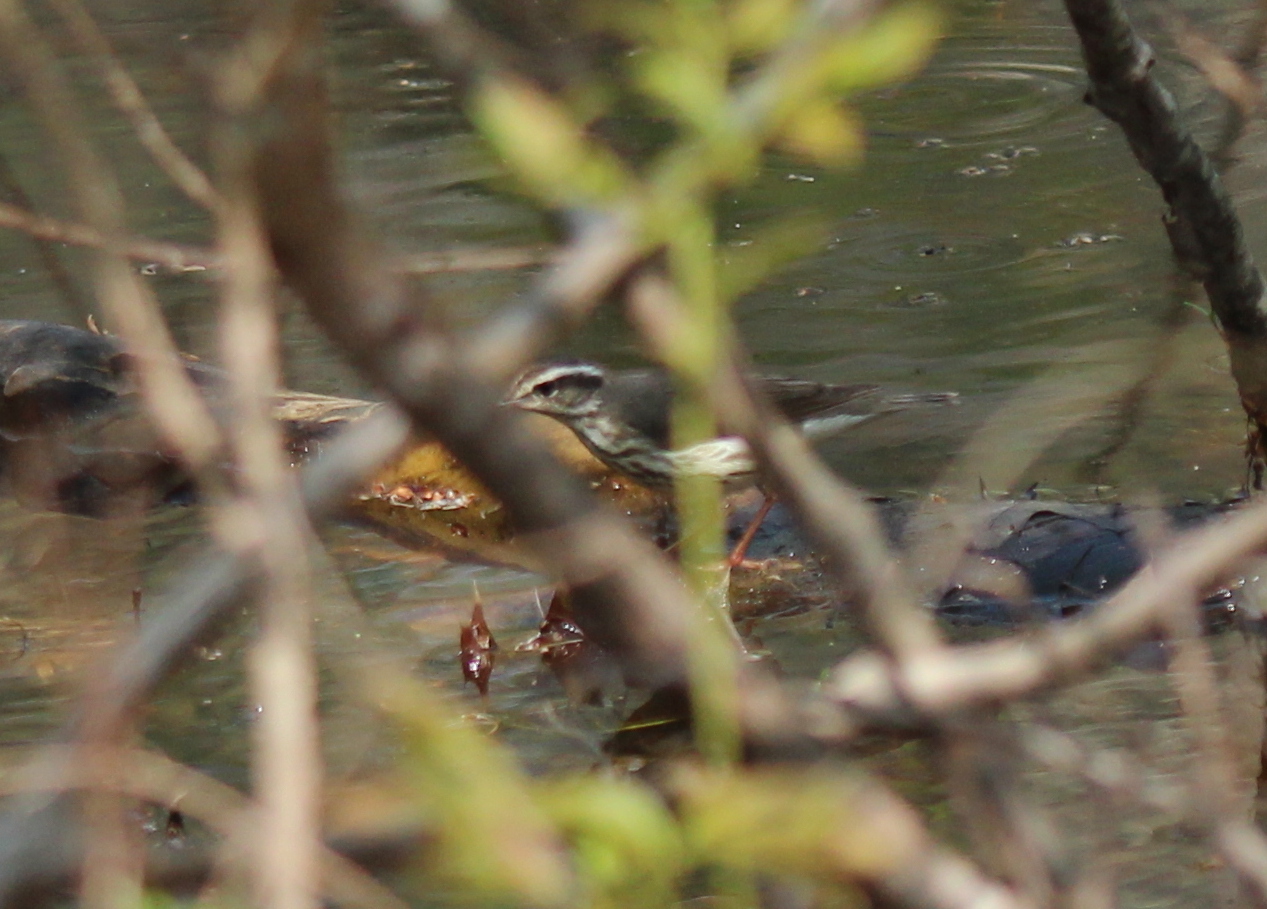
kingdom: Animalia
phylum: Chordata
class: Aves
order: Passeriformes
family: Parulidae
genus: Parkesia
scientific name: Parkesia motacilla
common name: Louisiana waterthrush
